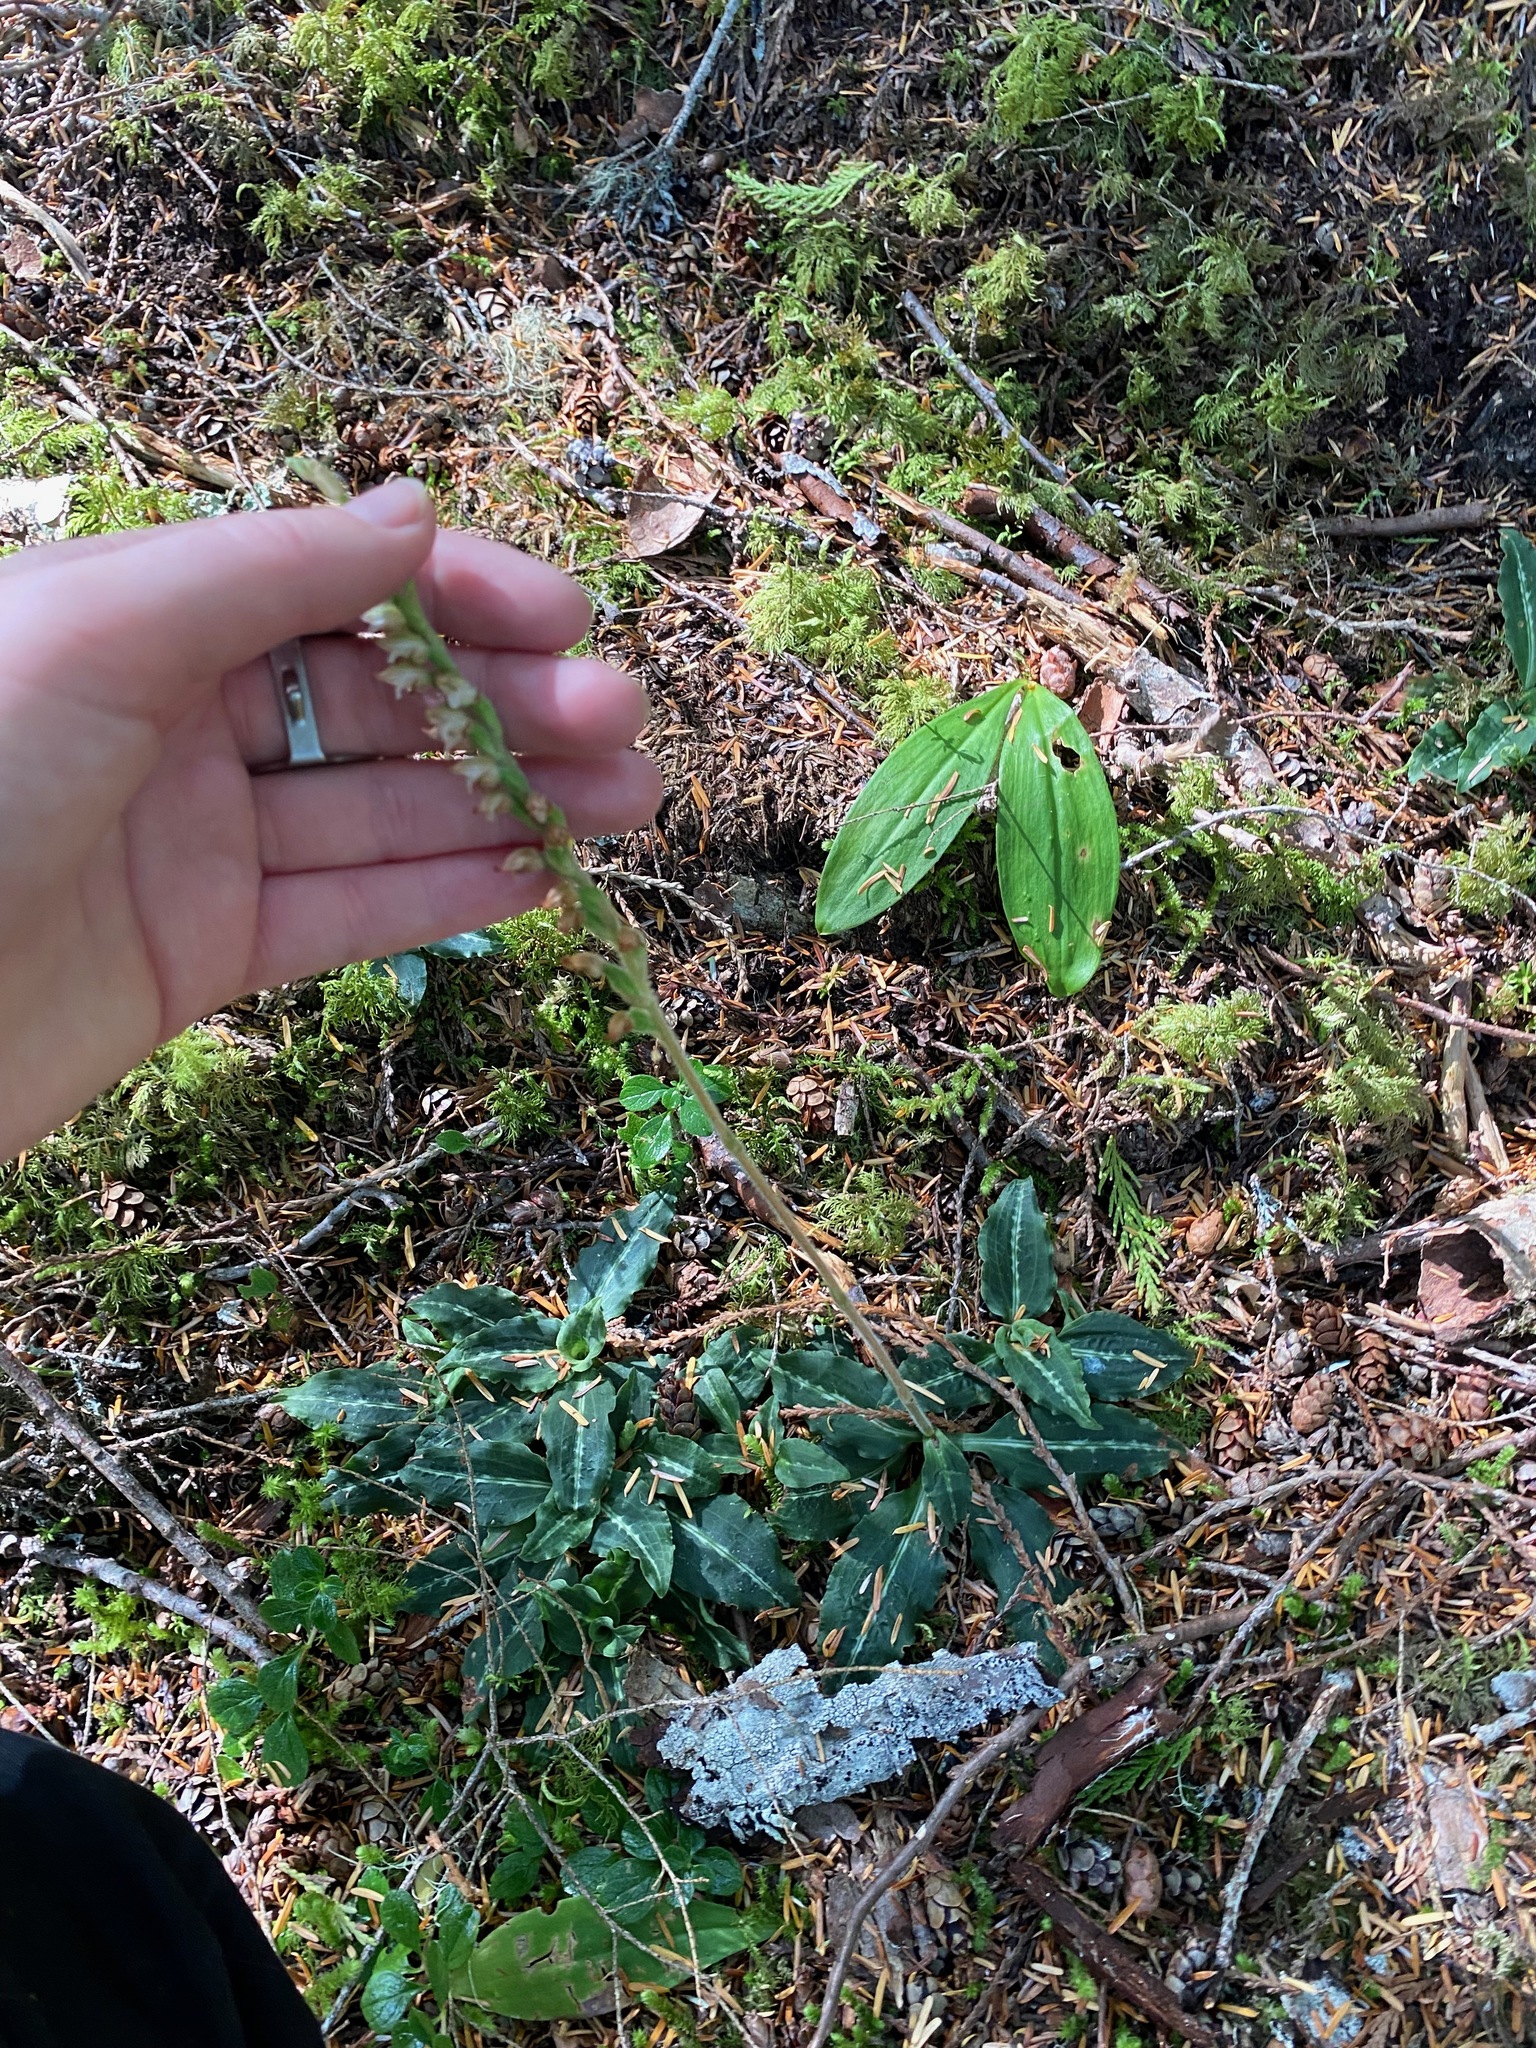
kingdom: Plantae
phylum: Tracheophyta
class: Liliopsida
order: Asparagales
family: Orchidaceae
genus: Goodyera
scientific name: Goodyera oblongifolia
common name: Giant rattlesnake-plantain
